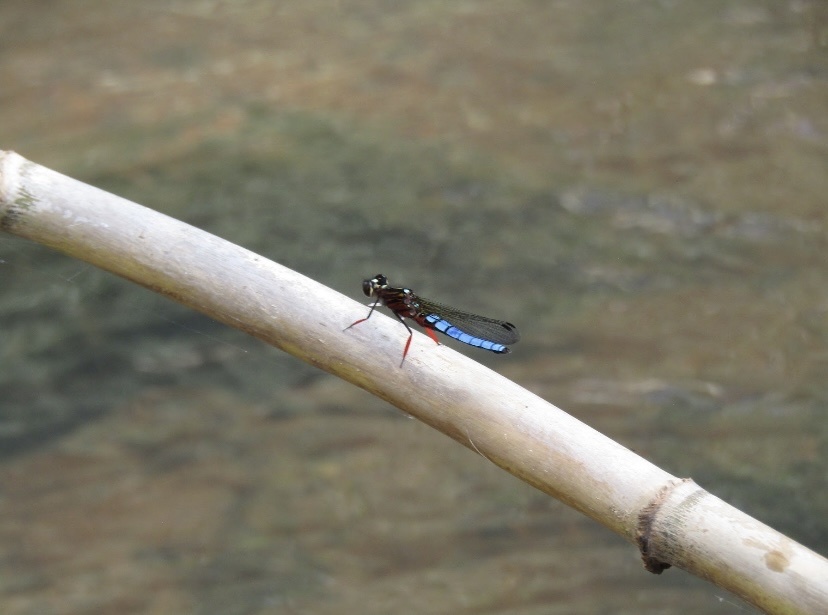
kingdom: Animalia
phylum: Arthropoda
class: Insecta
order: Odonata
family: Chlorocyphidae
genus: Platycypha
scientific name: Platycypha caligata
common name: Dancing jewel
